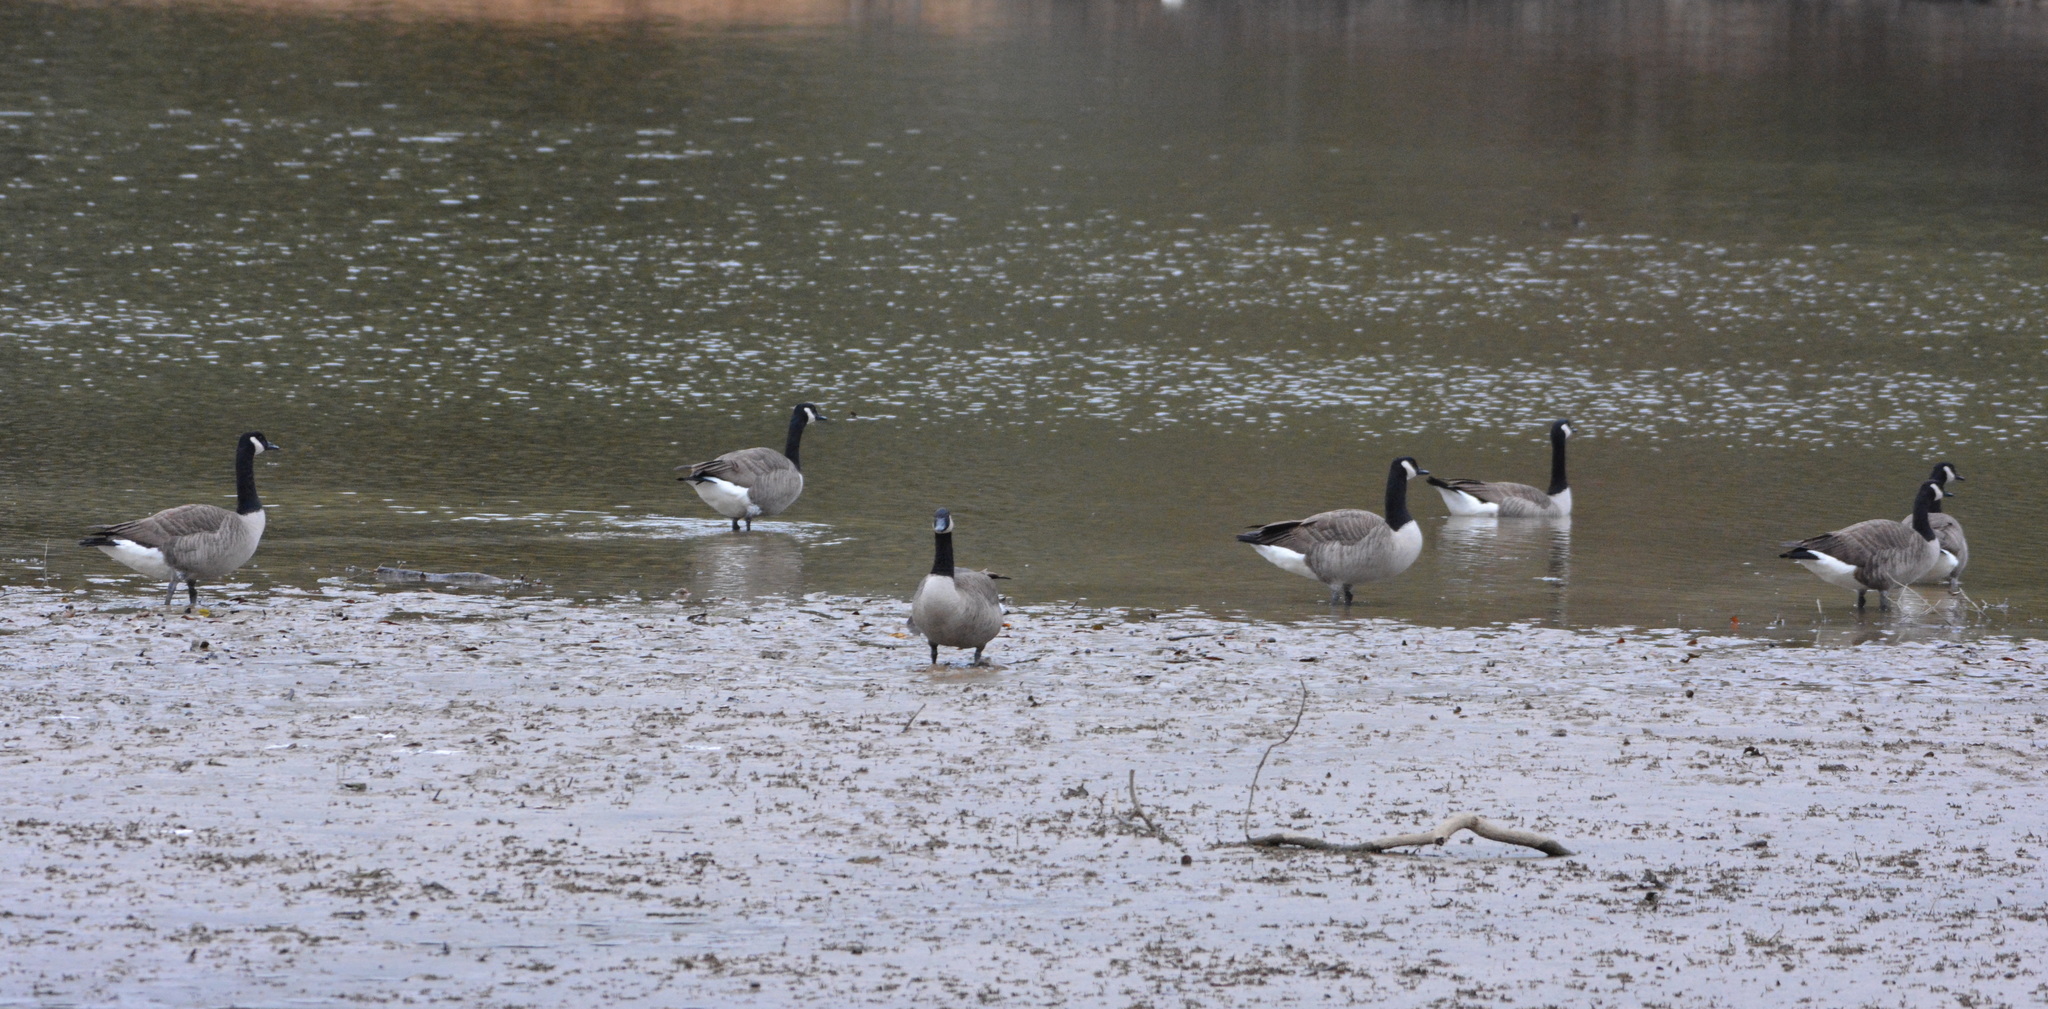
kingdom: Animalia
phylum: Chordata
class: Aves
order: Anseriformes
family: Anatidae
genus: Branta
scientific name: Branta canadensis
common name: Canada goose
